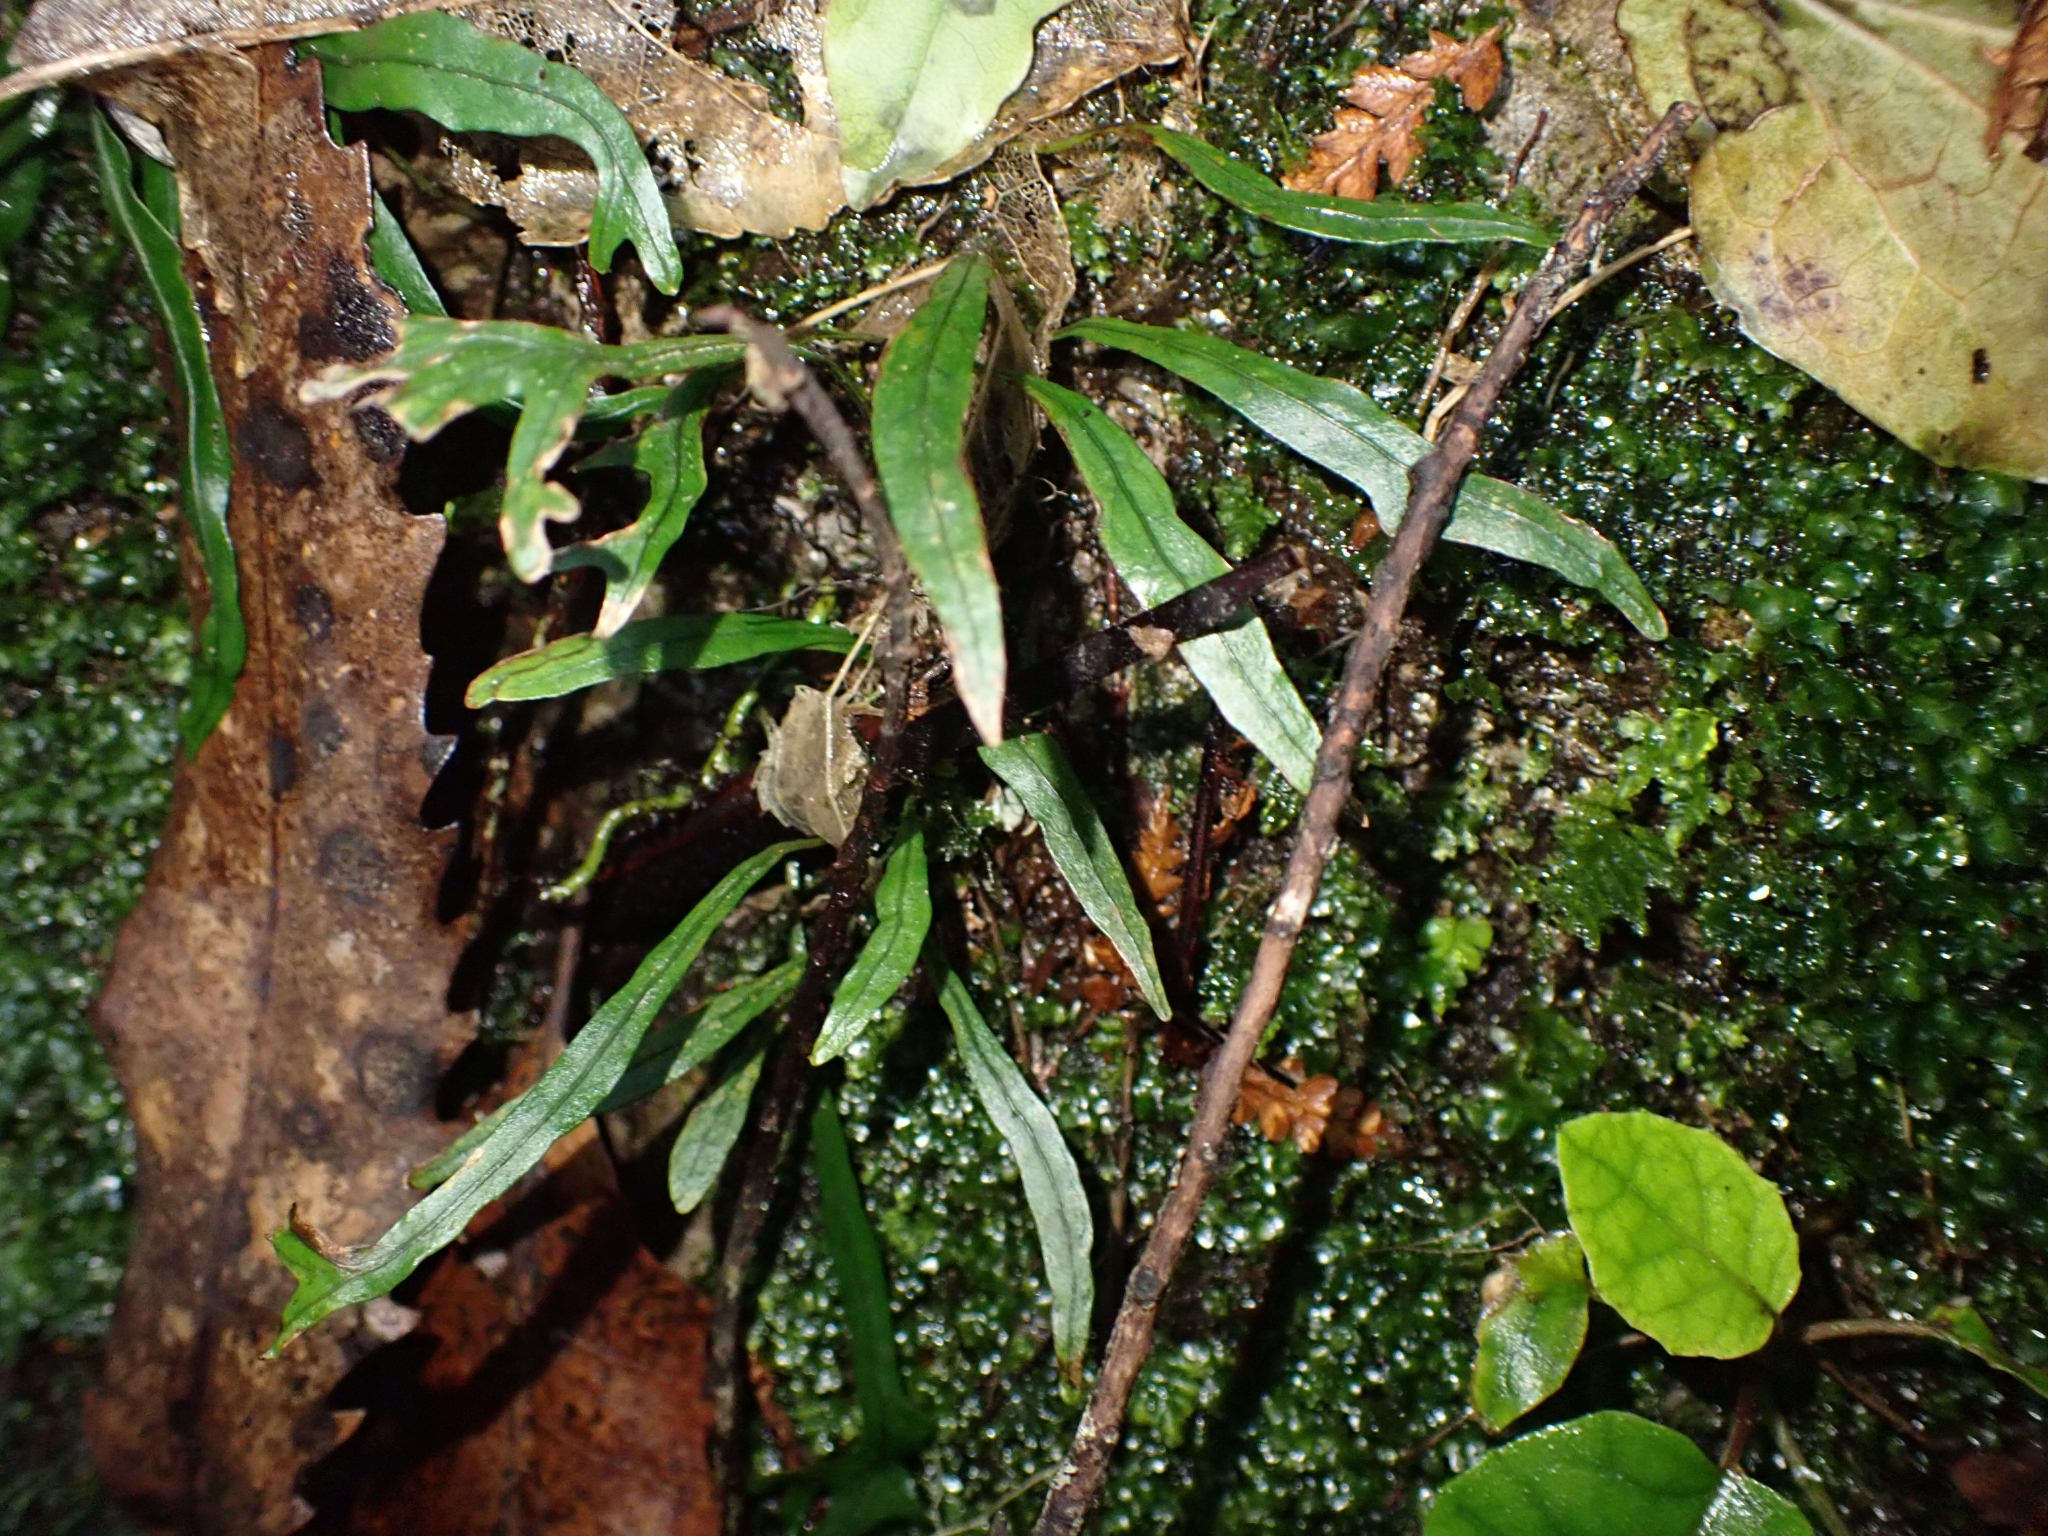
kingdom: Plantae
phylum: Tracheophyta
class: Polypodiopsida
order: Polypodiales
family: Polypodiaceae
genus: Lecanopteris
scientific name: Lecanopteris scandens
